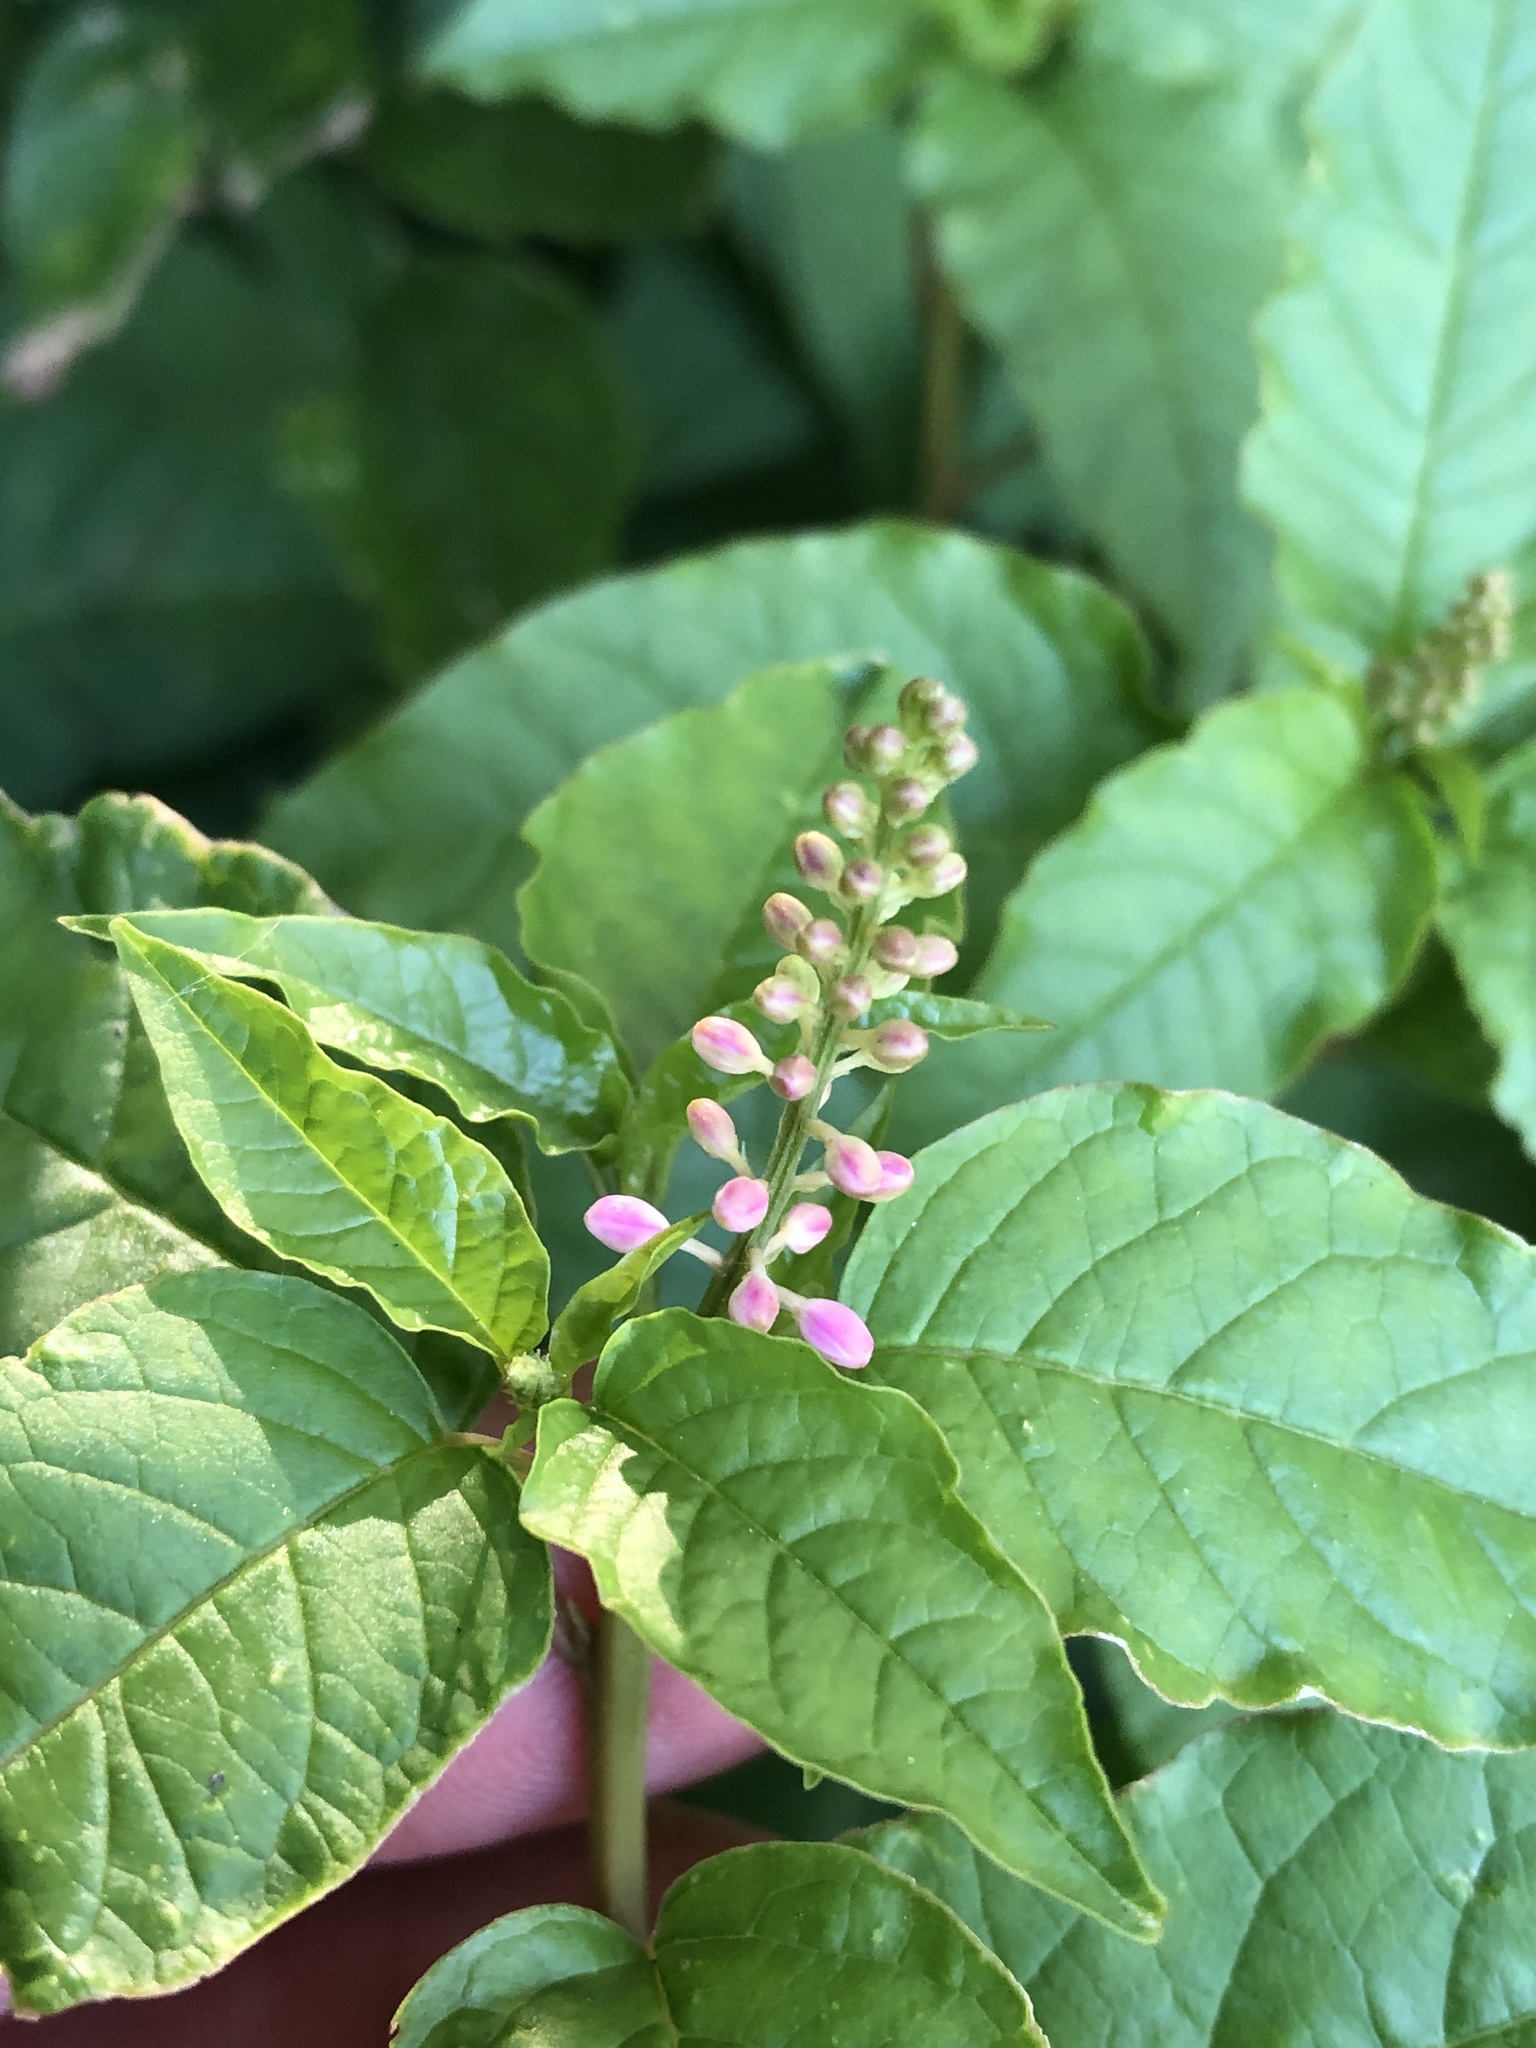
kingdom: Plantae
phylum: Tracheophyta
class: Magnoliopsida
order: Caryophyllales
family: Phytolaccaceae
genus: Rivina
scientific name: Rivina humilis
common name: Rougeplant
